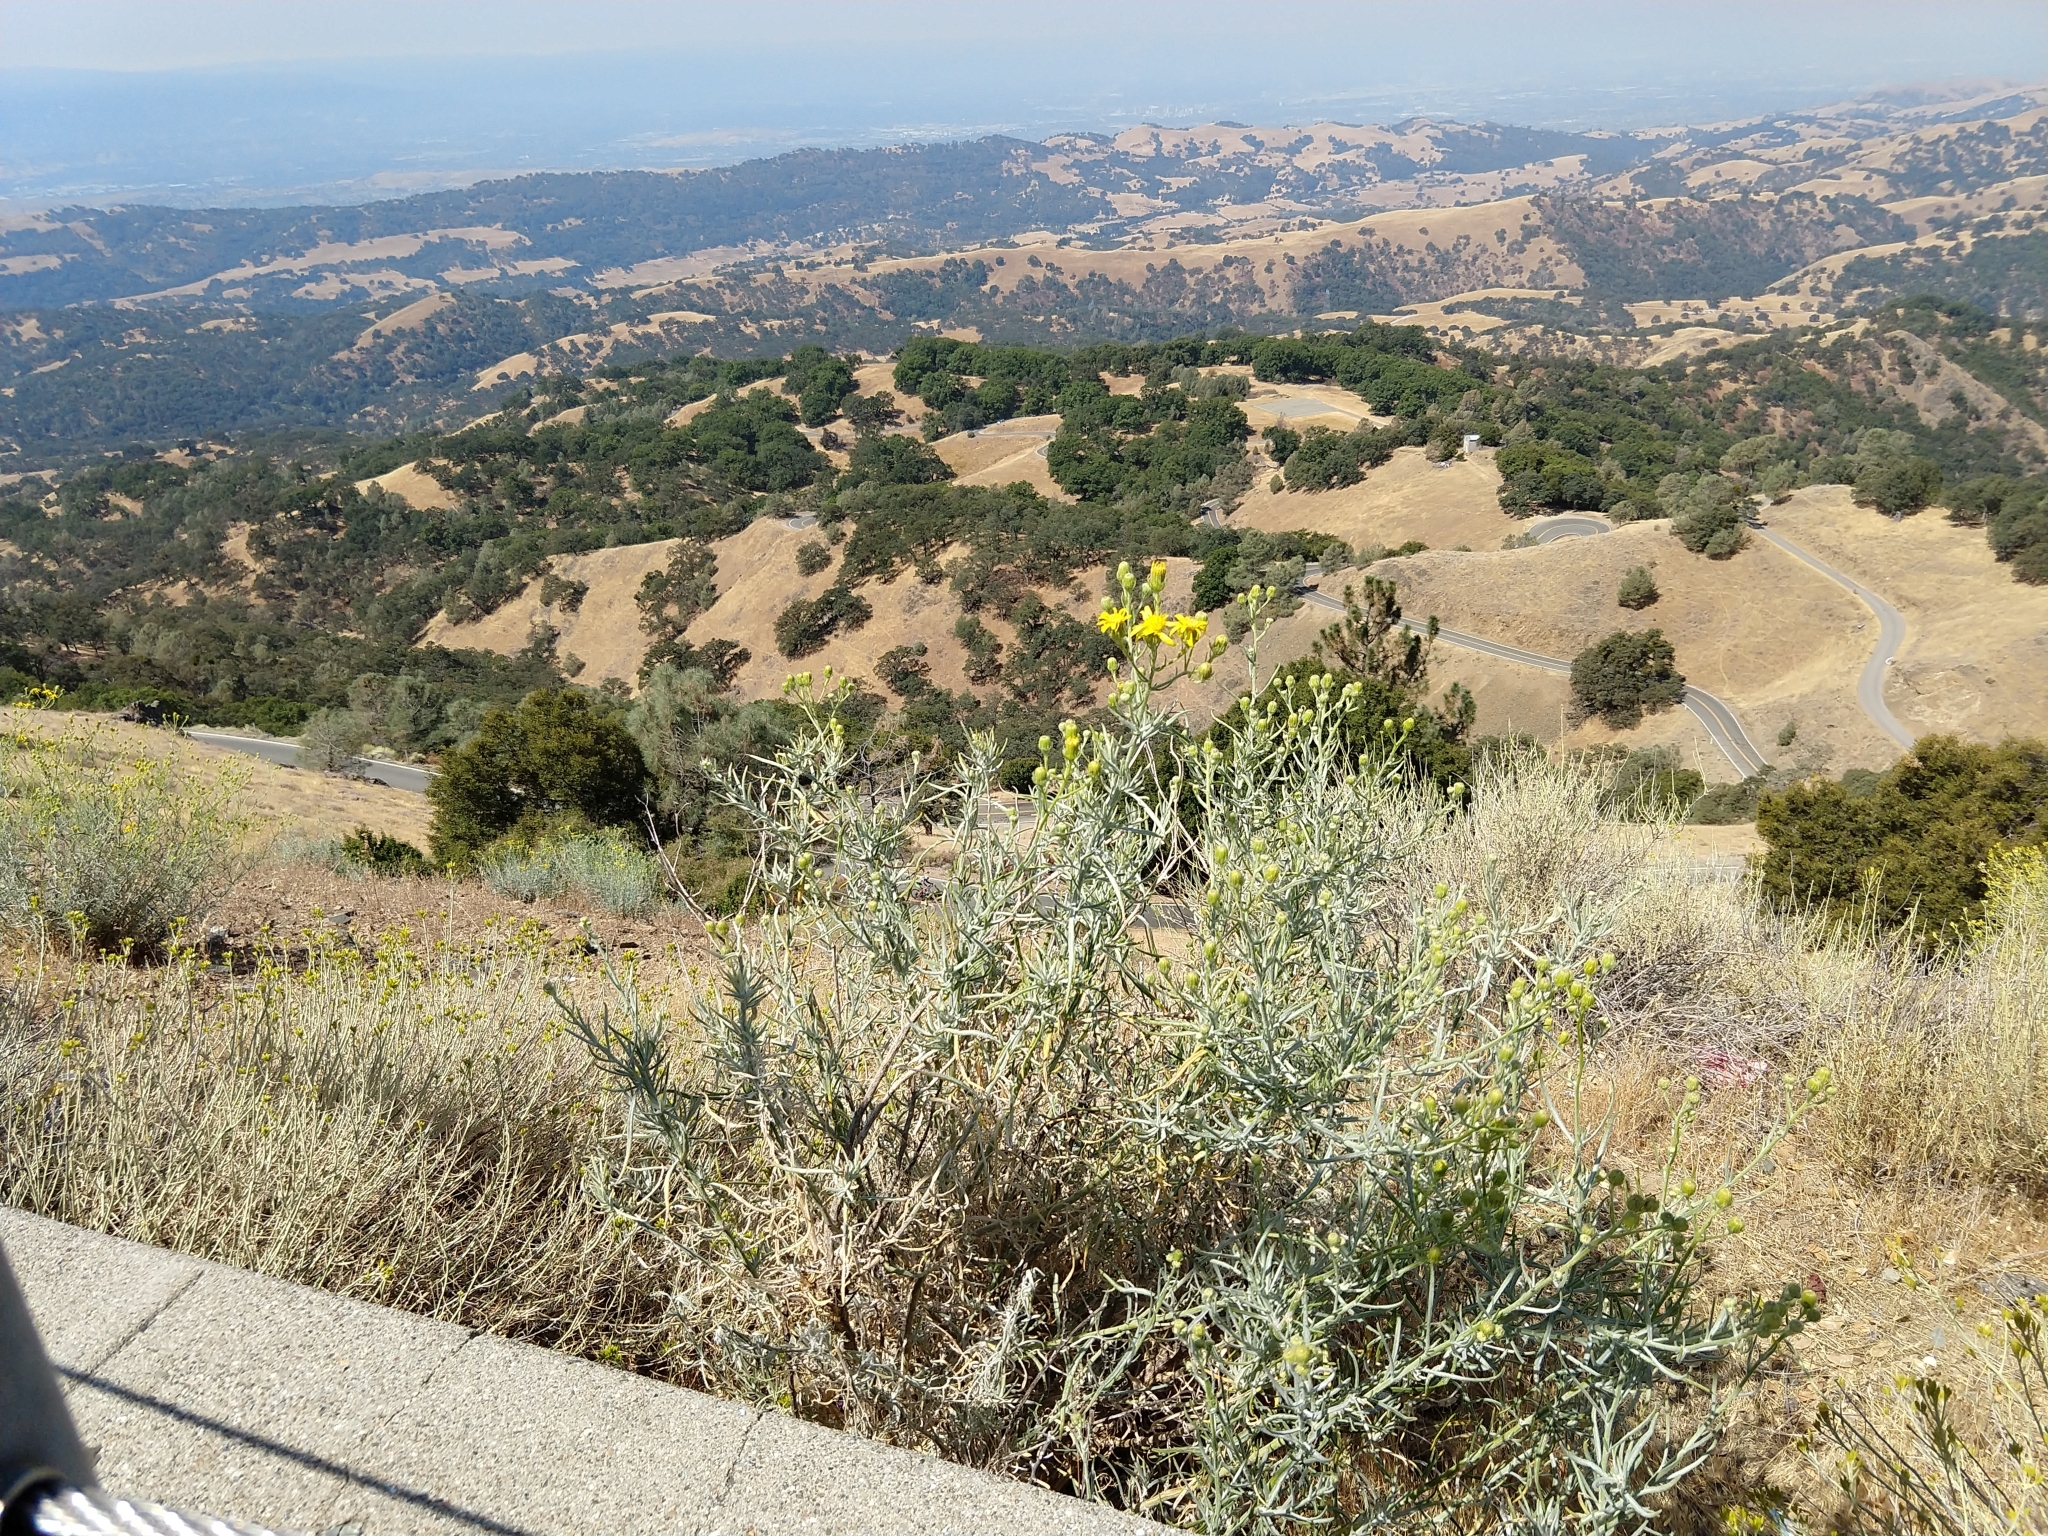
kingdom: Plantae
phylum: Tracheophyta
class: Magnoliopsida
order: Asterales
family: Asteraceae
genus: Senecio
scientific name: Senecio flaccidus
